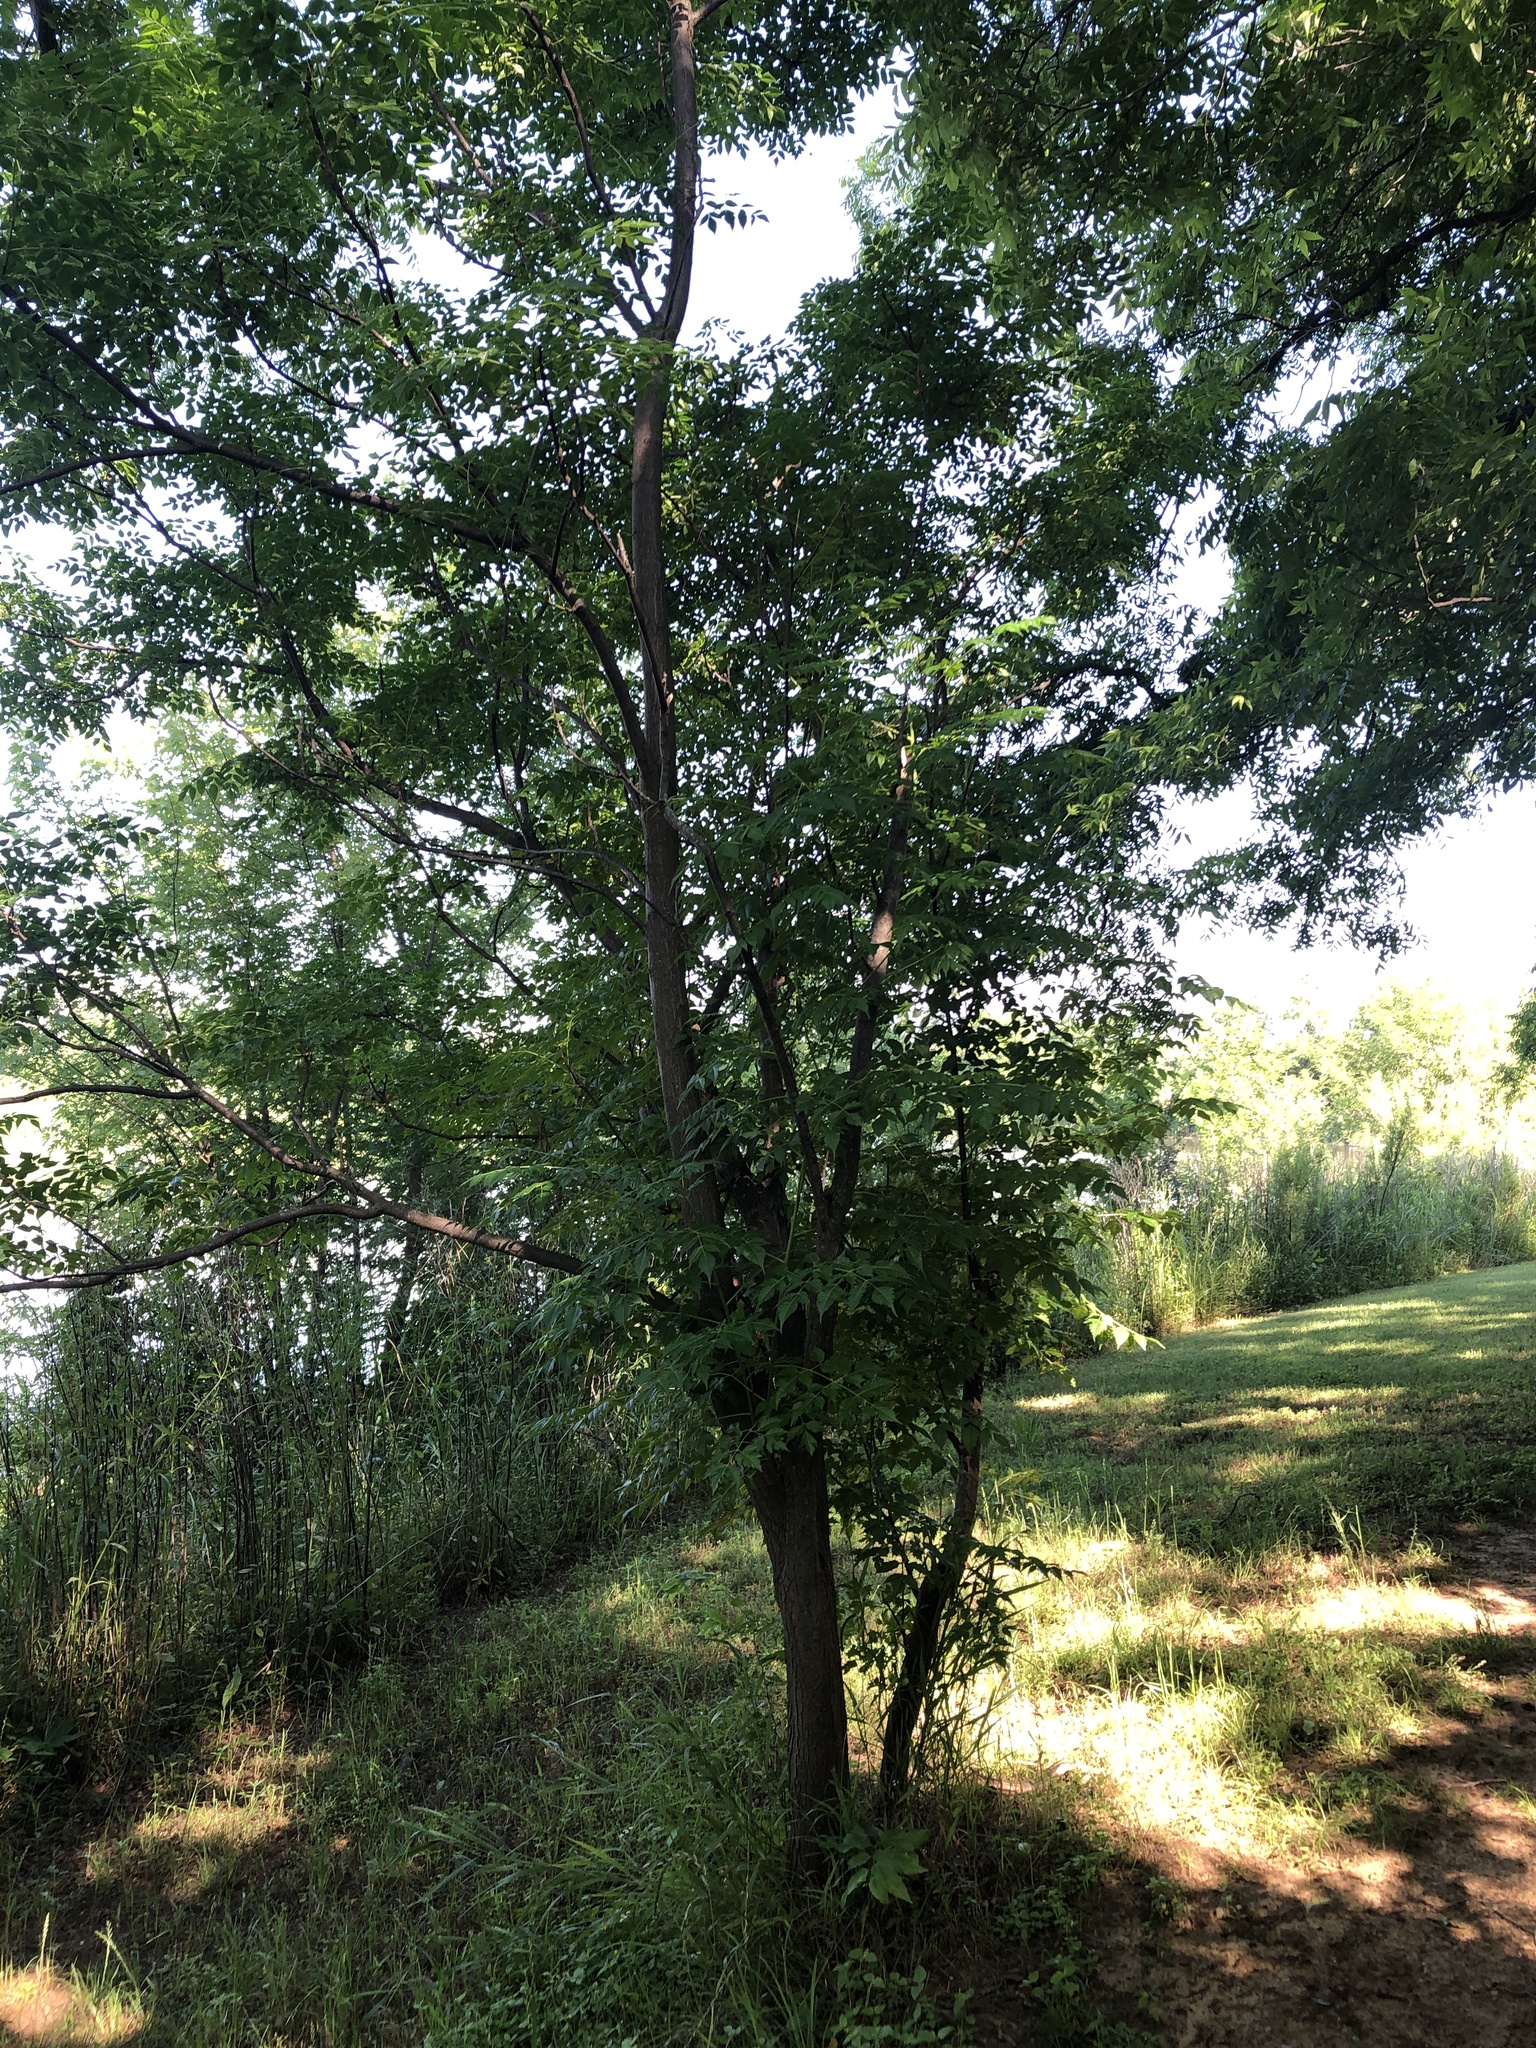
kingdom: Plantae
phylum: Tracheophyta
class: Magnoliopsida
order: Sapindales
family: Meliaceae
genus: Melia
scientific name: Melia azedarach
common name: Chinaberrytree
